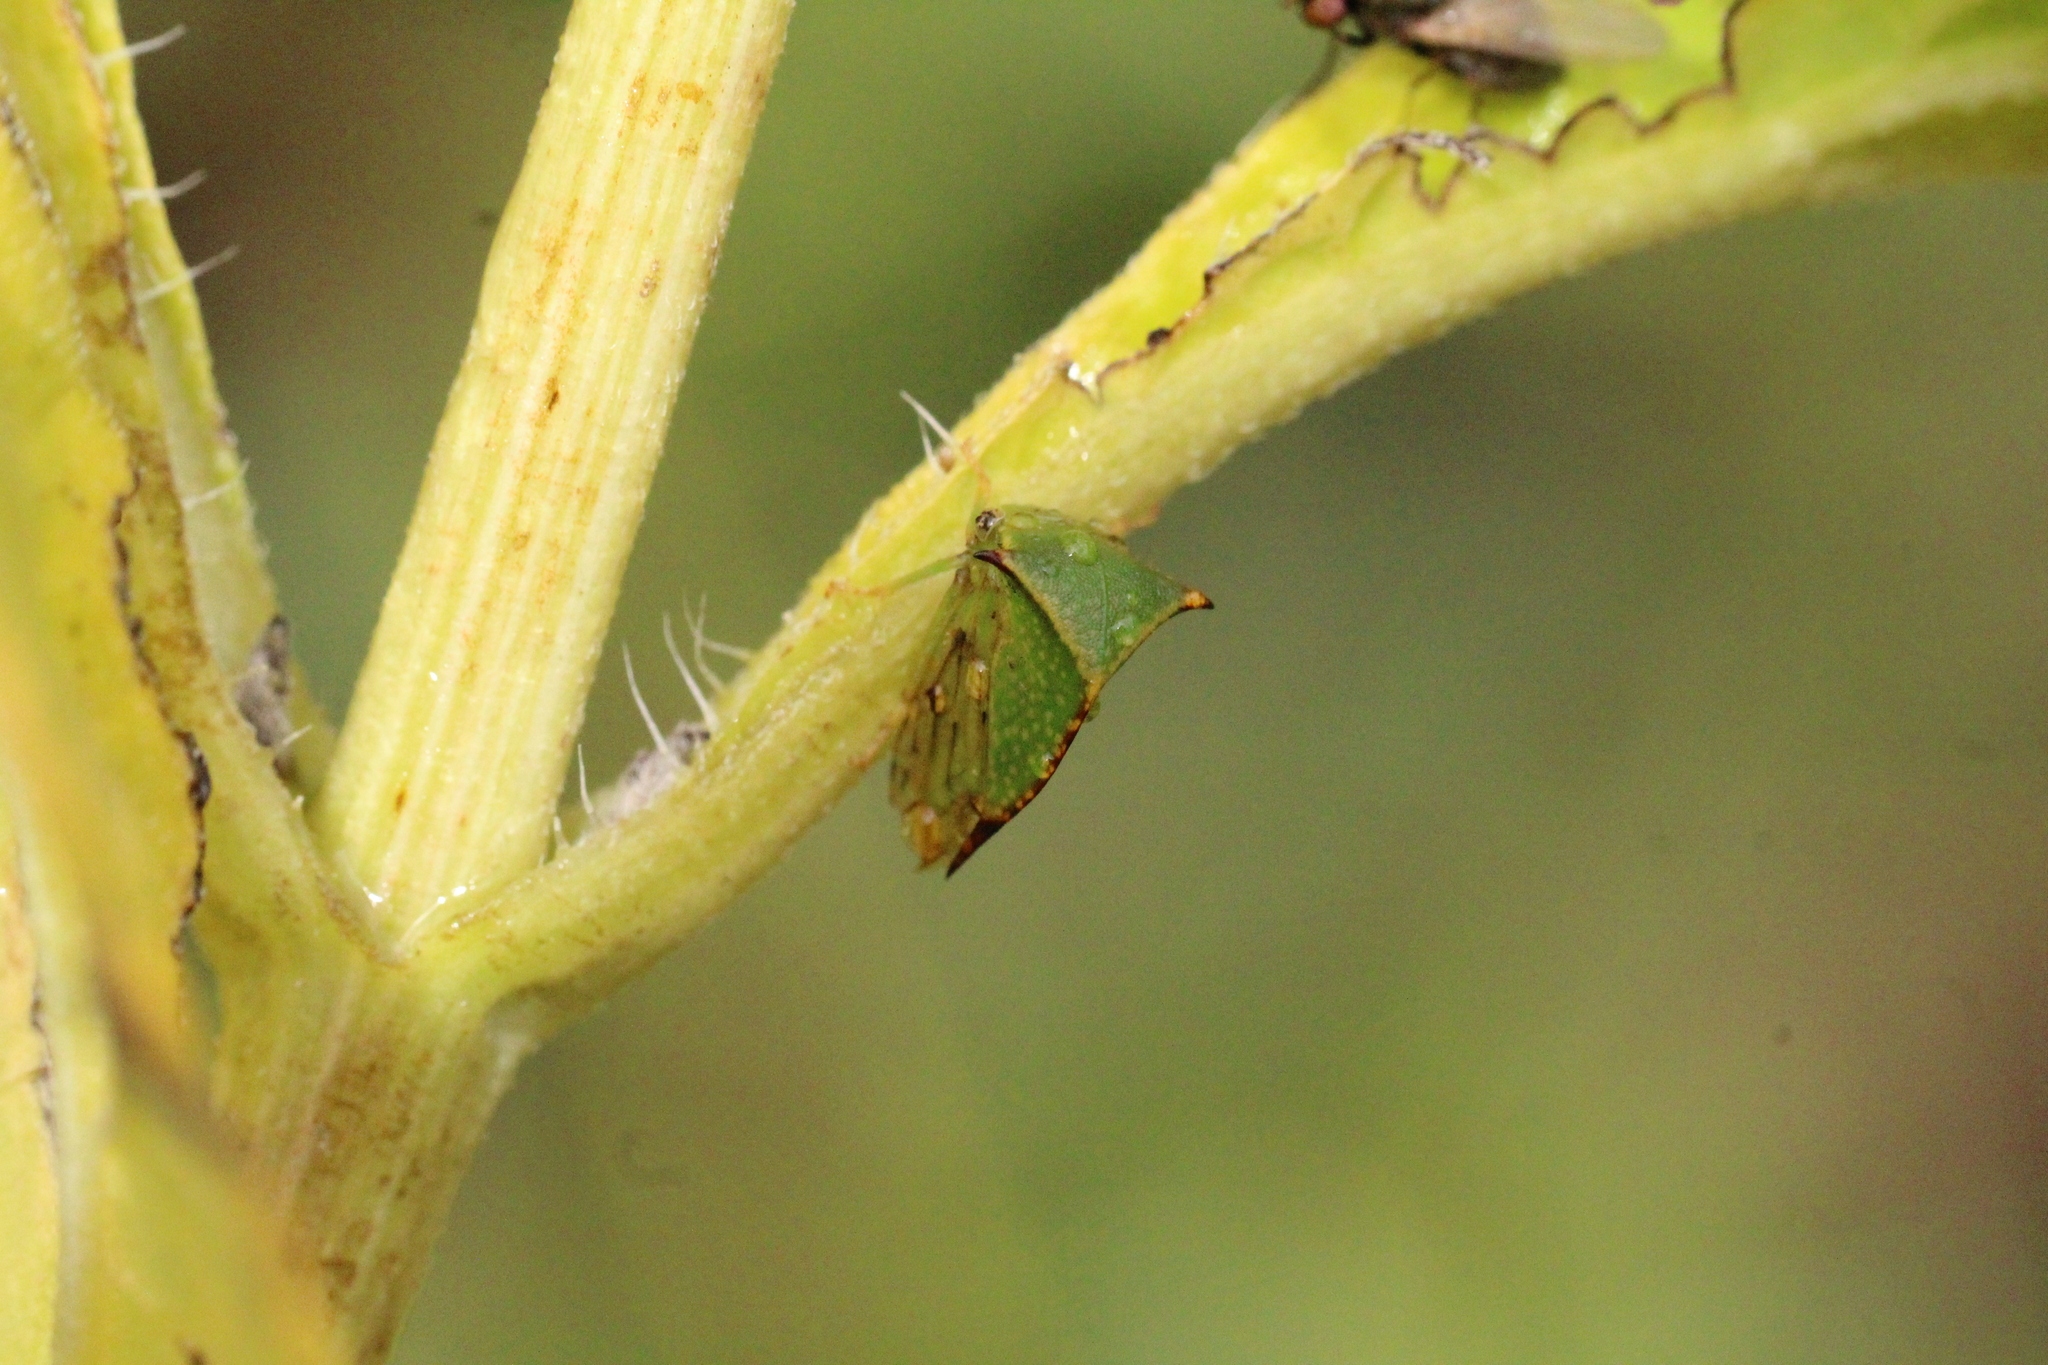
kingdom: Animalia
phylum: Arthropoda
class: Insecta
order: Hemiptera
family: Membracidae
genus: Stictocephala
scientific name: Stictocephala bisonia
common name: American buffalo treehopper
